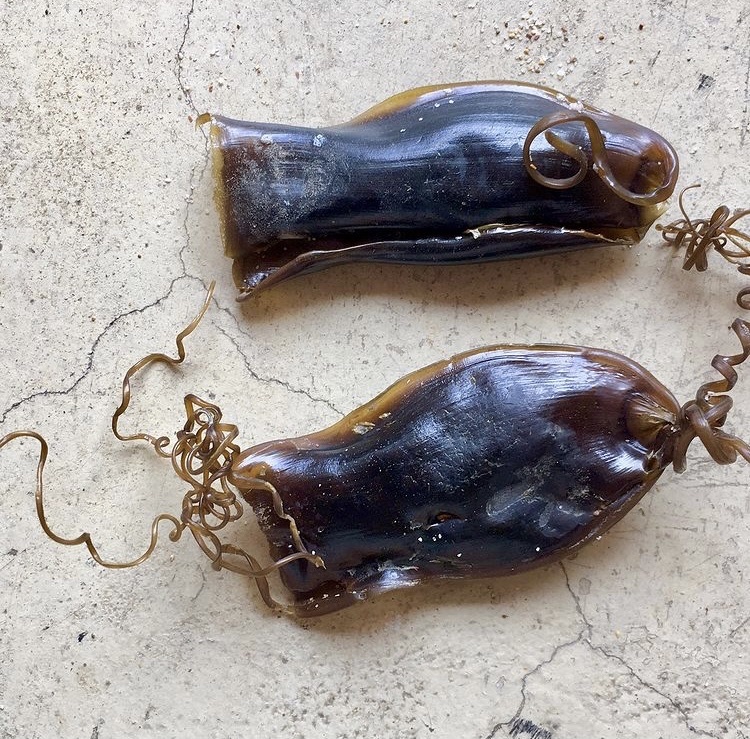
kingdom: Animalia
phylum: Chordata
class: Elasmobranchii
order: Carcharhiniformes
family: Scyliorhinidae
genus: Poroderma
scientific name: Poroderma africanum
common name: Pyjama shark
